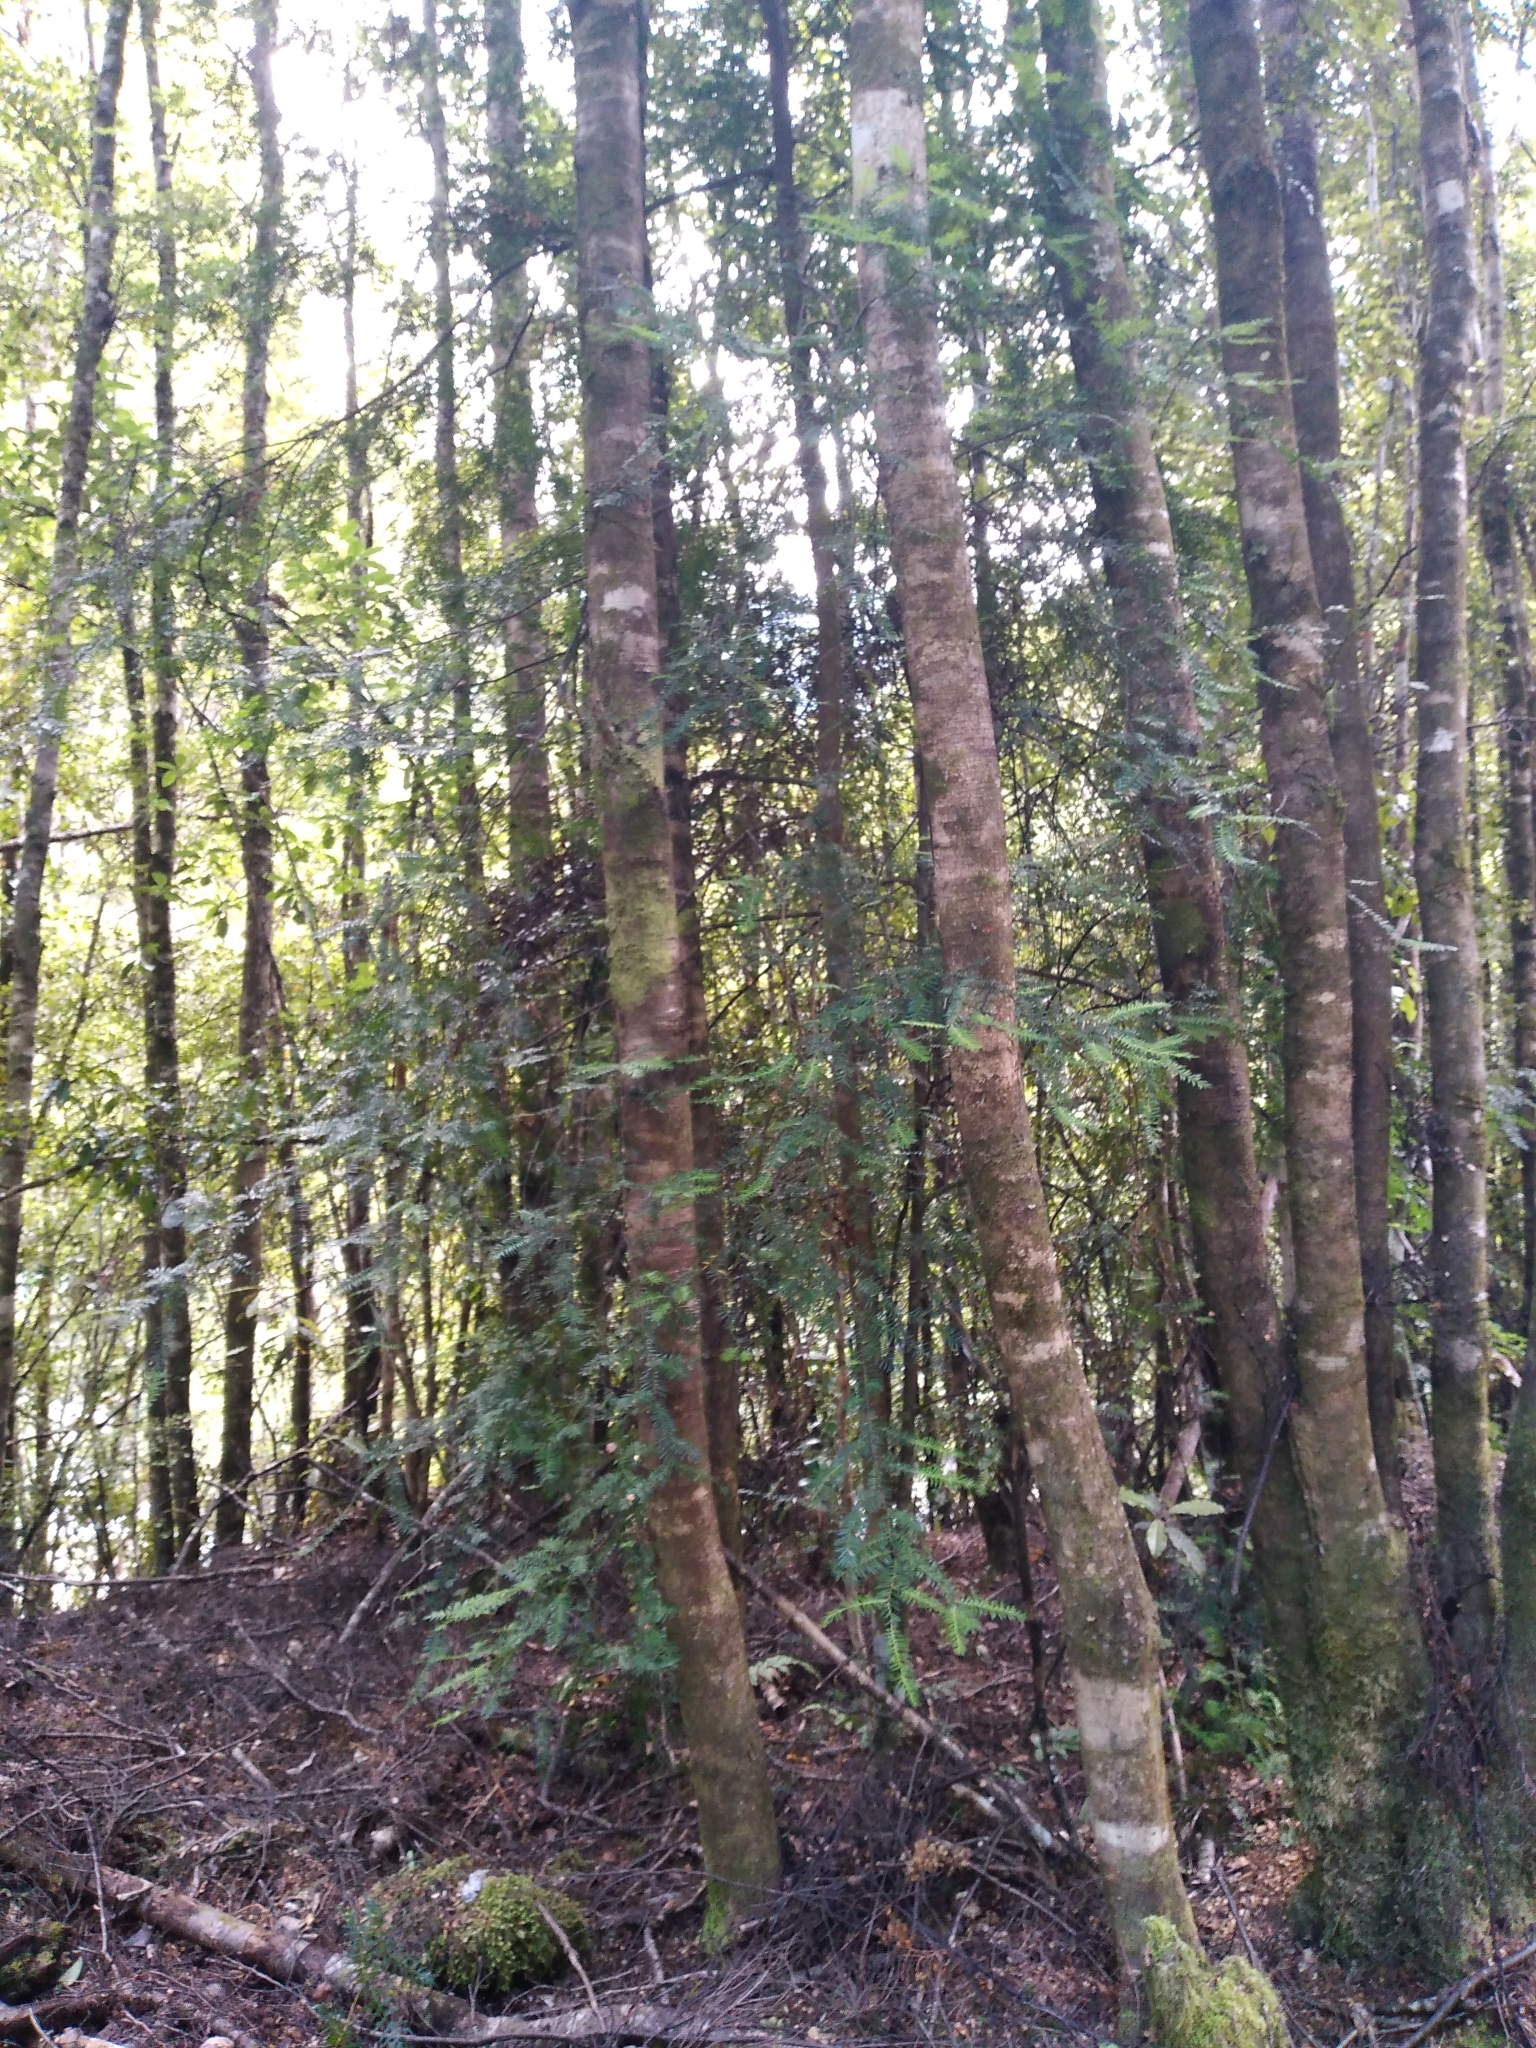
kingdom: Plantae
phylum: Tracheophyta
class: Pinopsida
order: Pinales
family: Podocarpaceae
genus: Prumnopitys
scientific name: Prumnopitys ferruginea
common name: Brown pine
